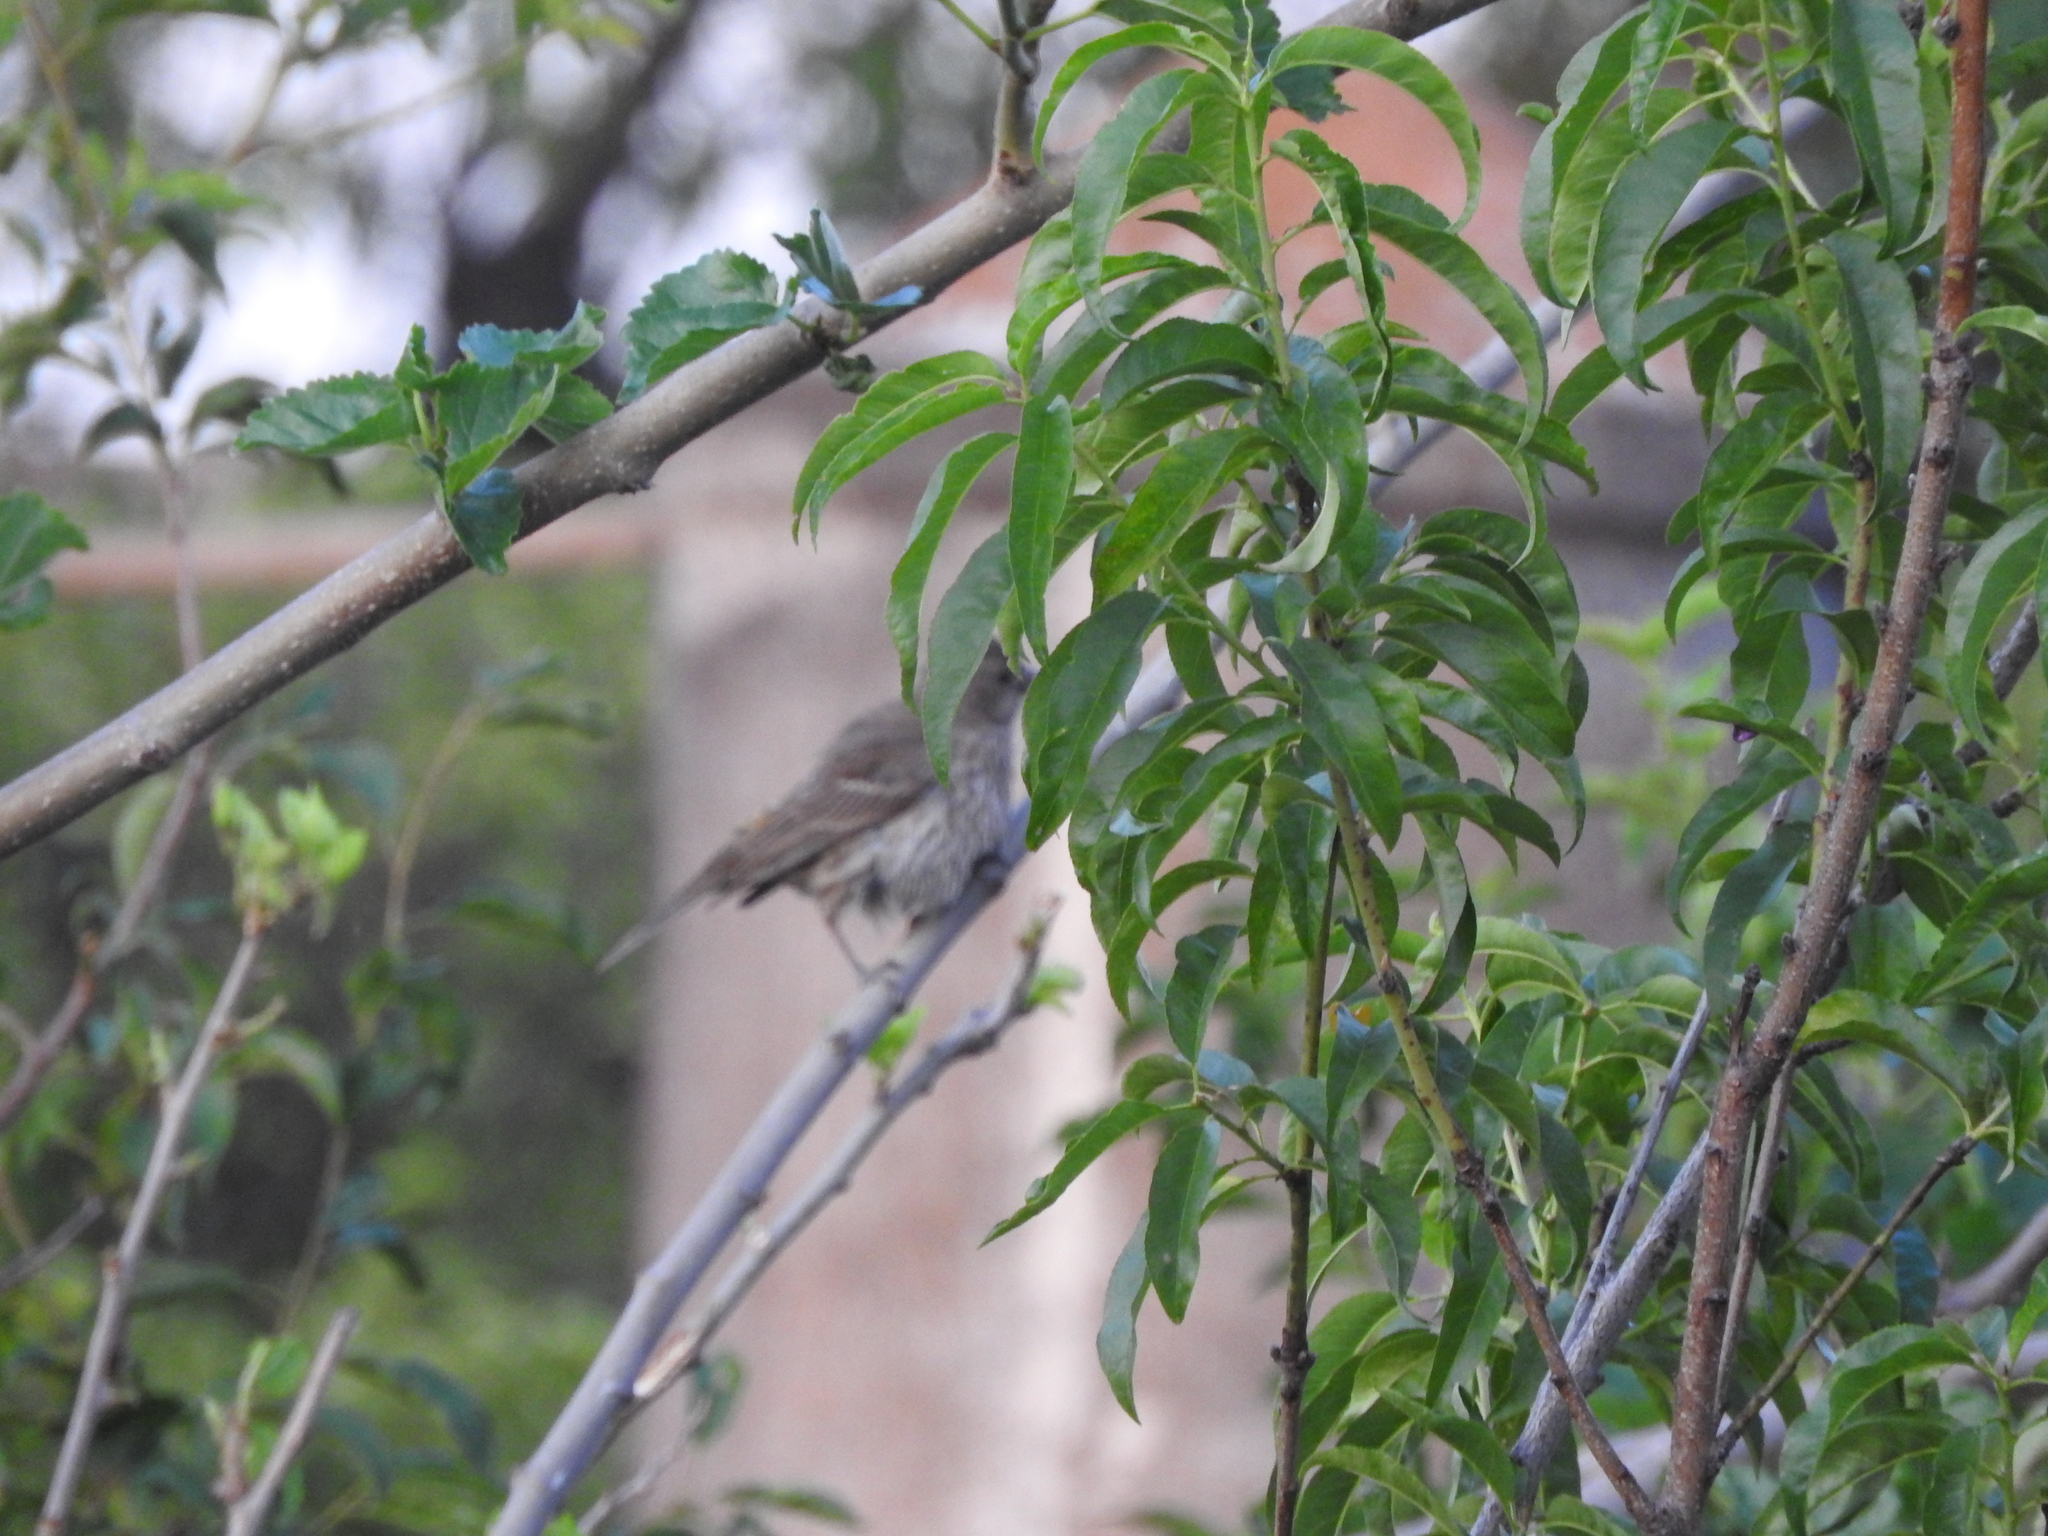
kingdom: Animalia
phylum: Chordata
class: Aves
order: Passeriformes
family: Fringillidae
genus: Haemorhous
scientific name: Haemorhous mexicanus
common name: House finch
